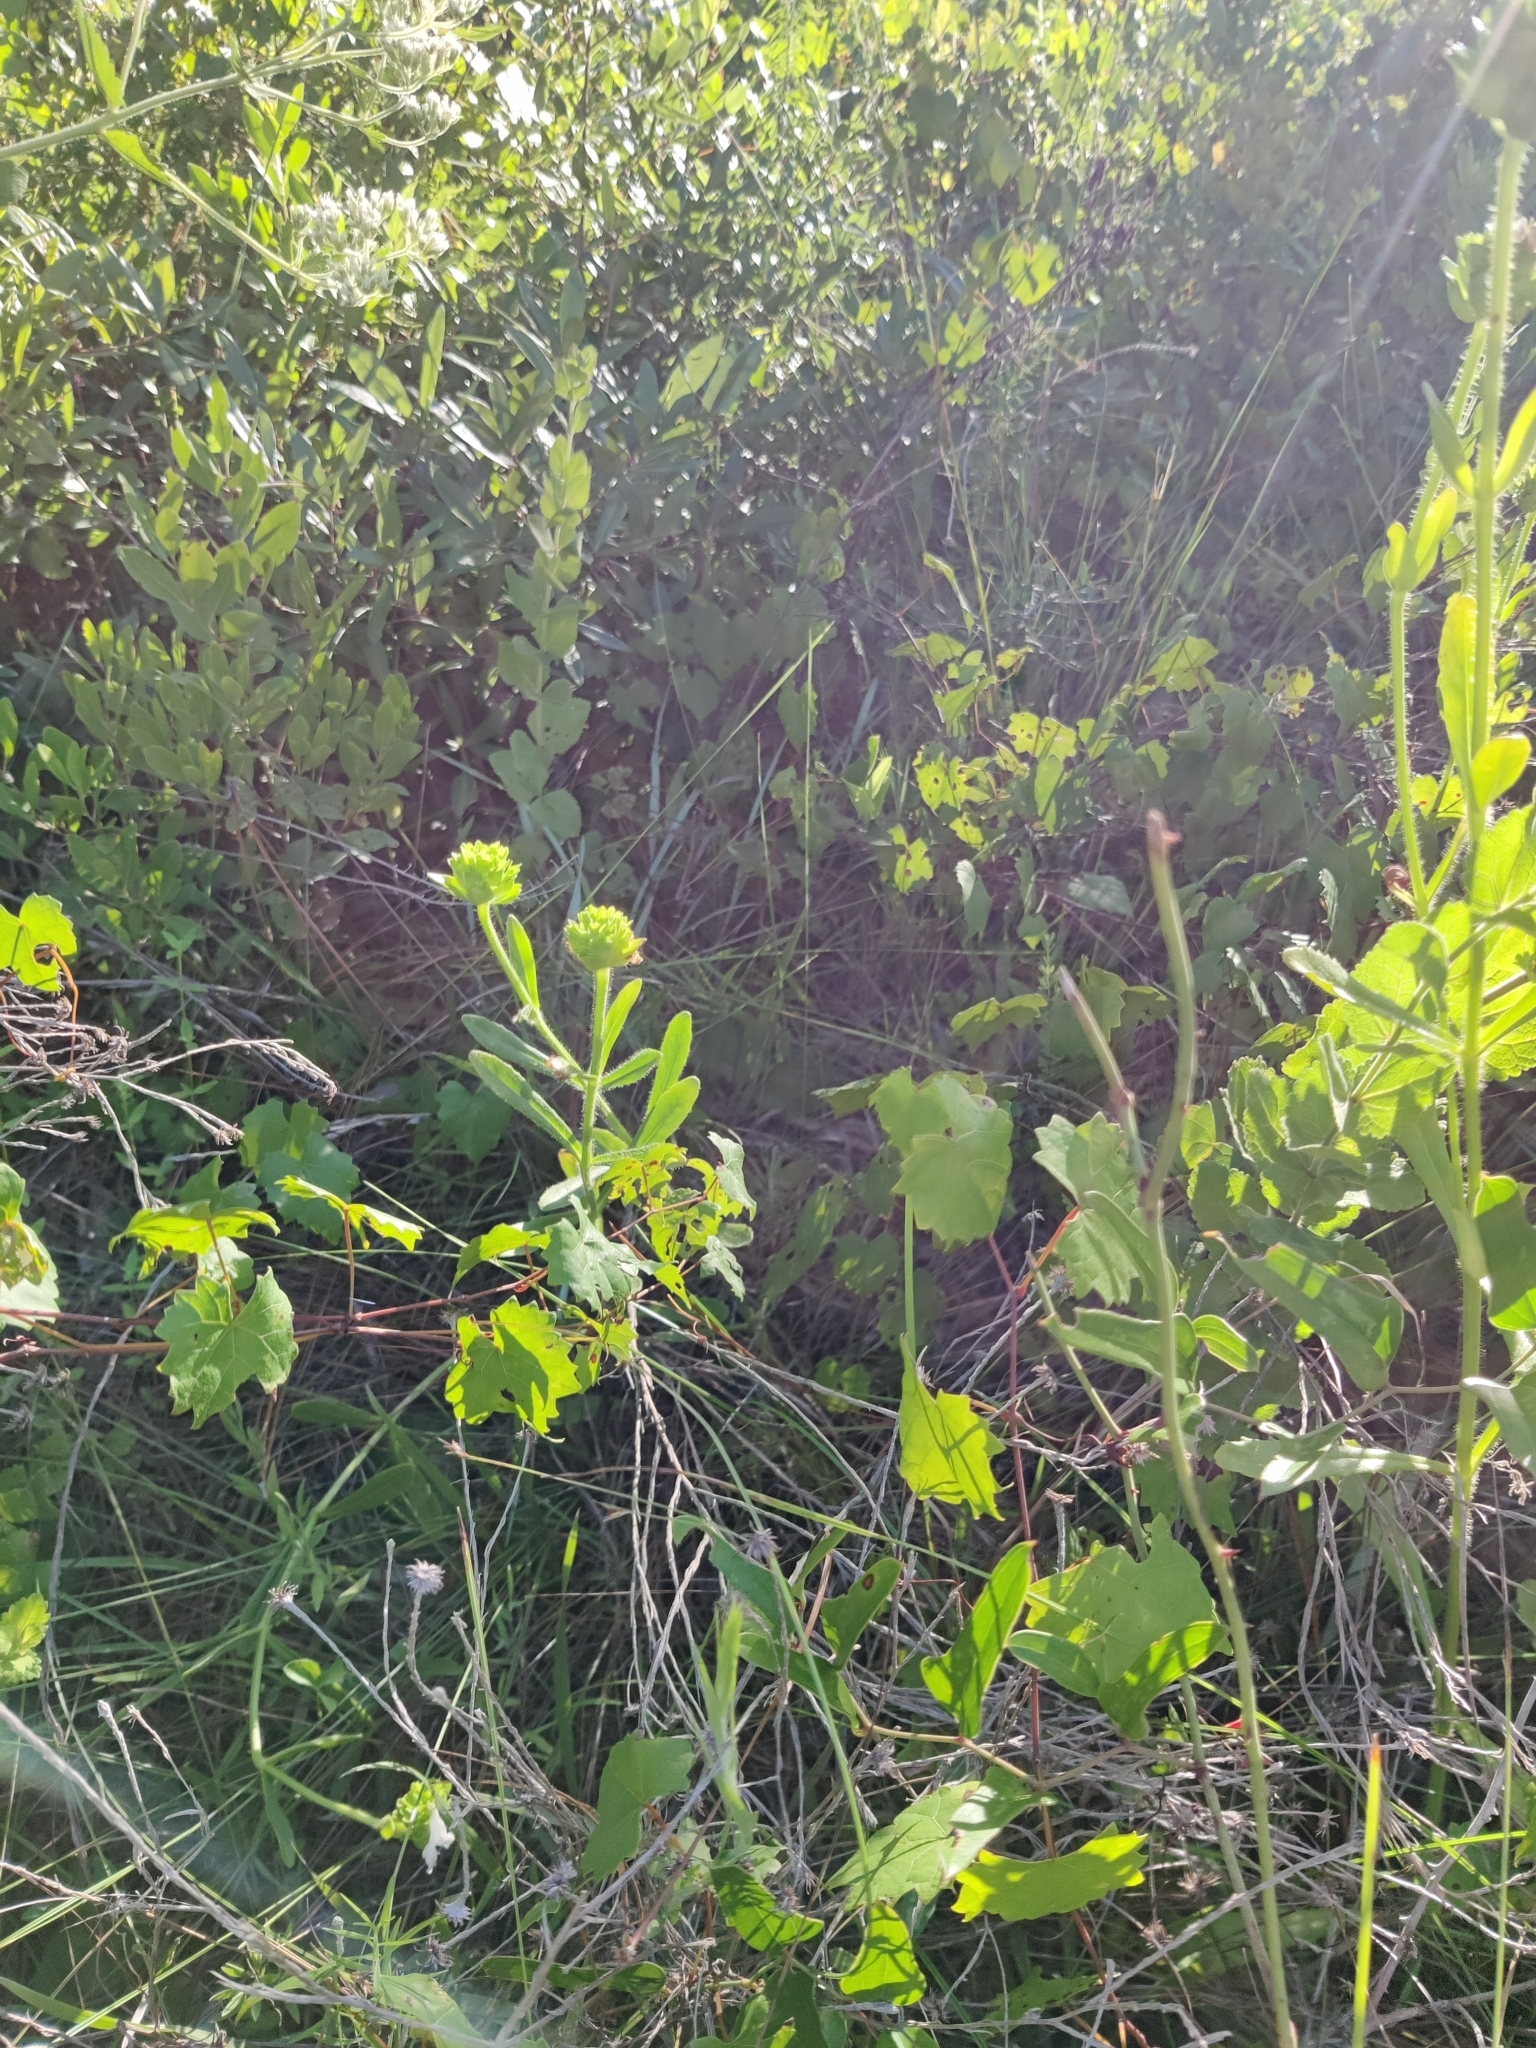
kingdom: Plantae
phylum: Tracheophyta
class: Magnoliopsida
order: Lamiales
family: Lamiaceae
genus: Macbridea
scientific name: Macbridea alba
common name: White birds in-a-nest
